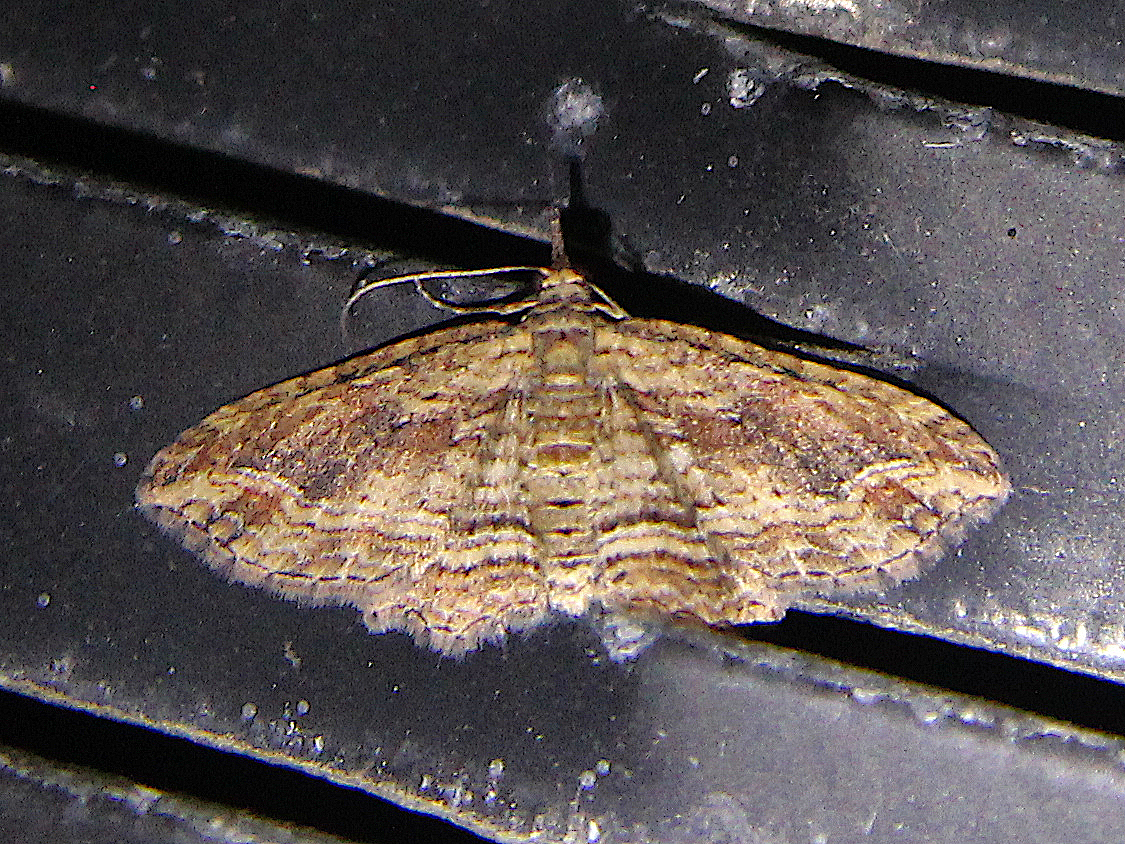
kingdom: Animalia
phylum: Arthropoda
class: Insecta
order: Lepidoptera
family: Geometridae
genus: Chloroclystis
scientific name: Chloroclystis filata
